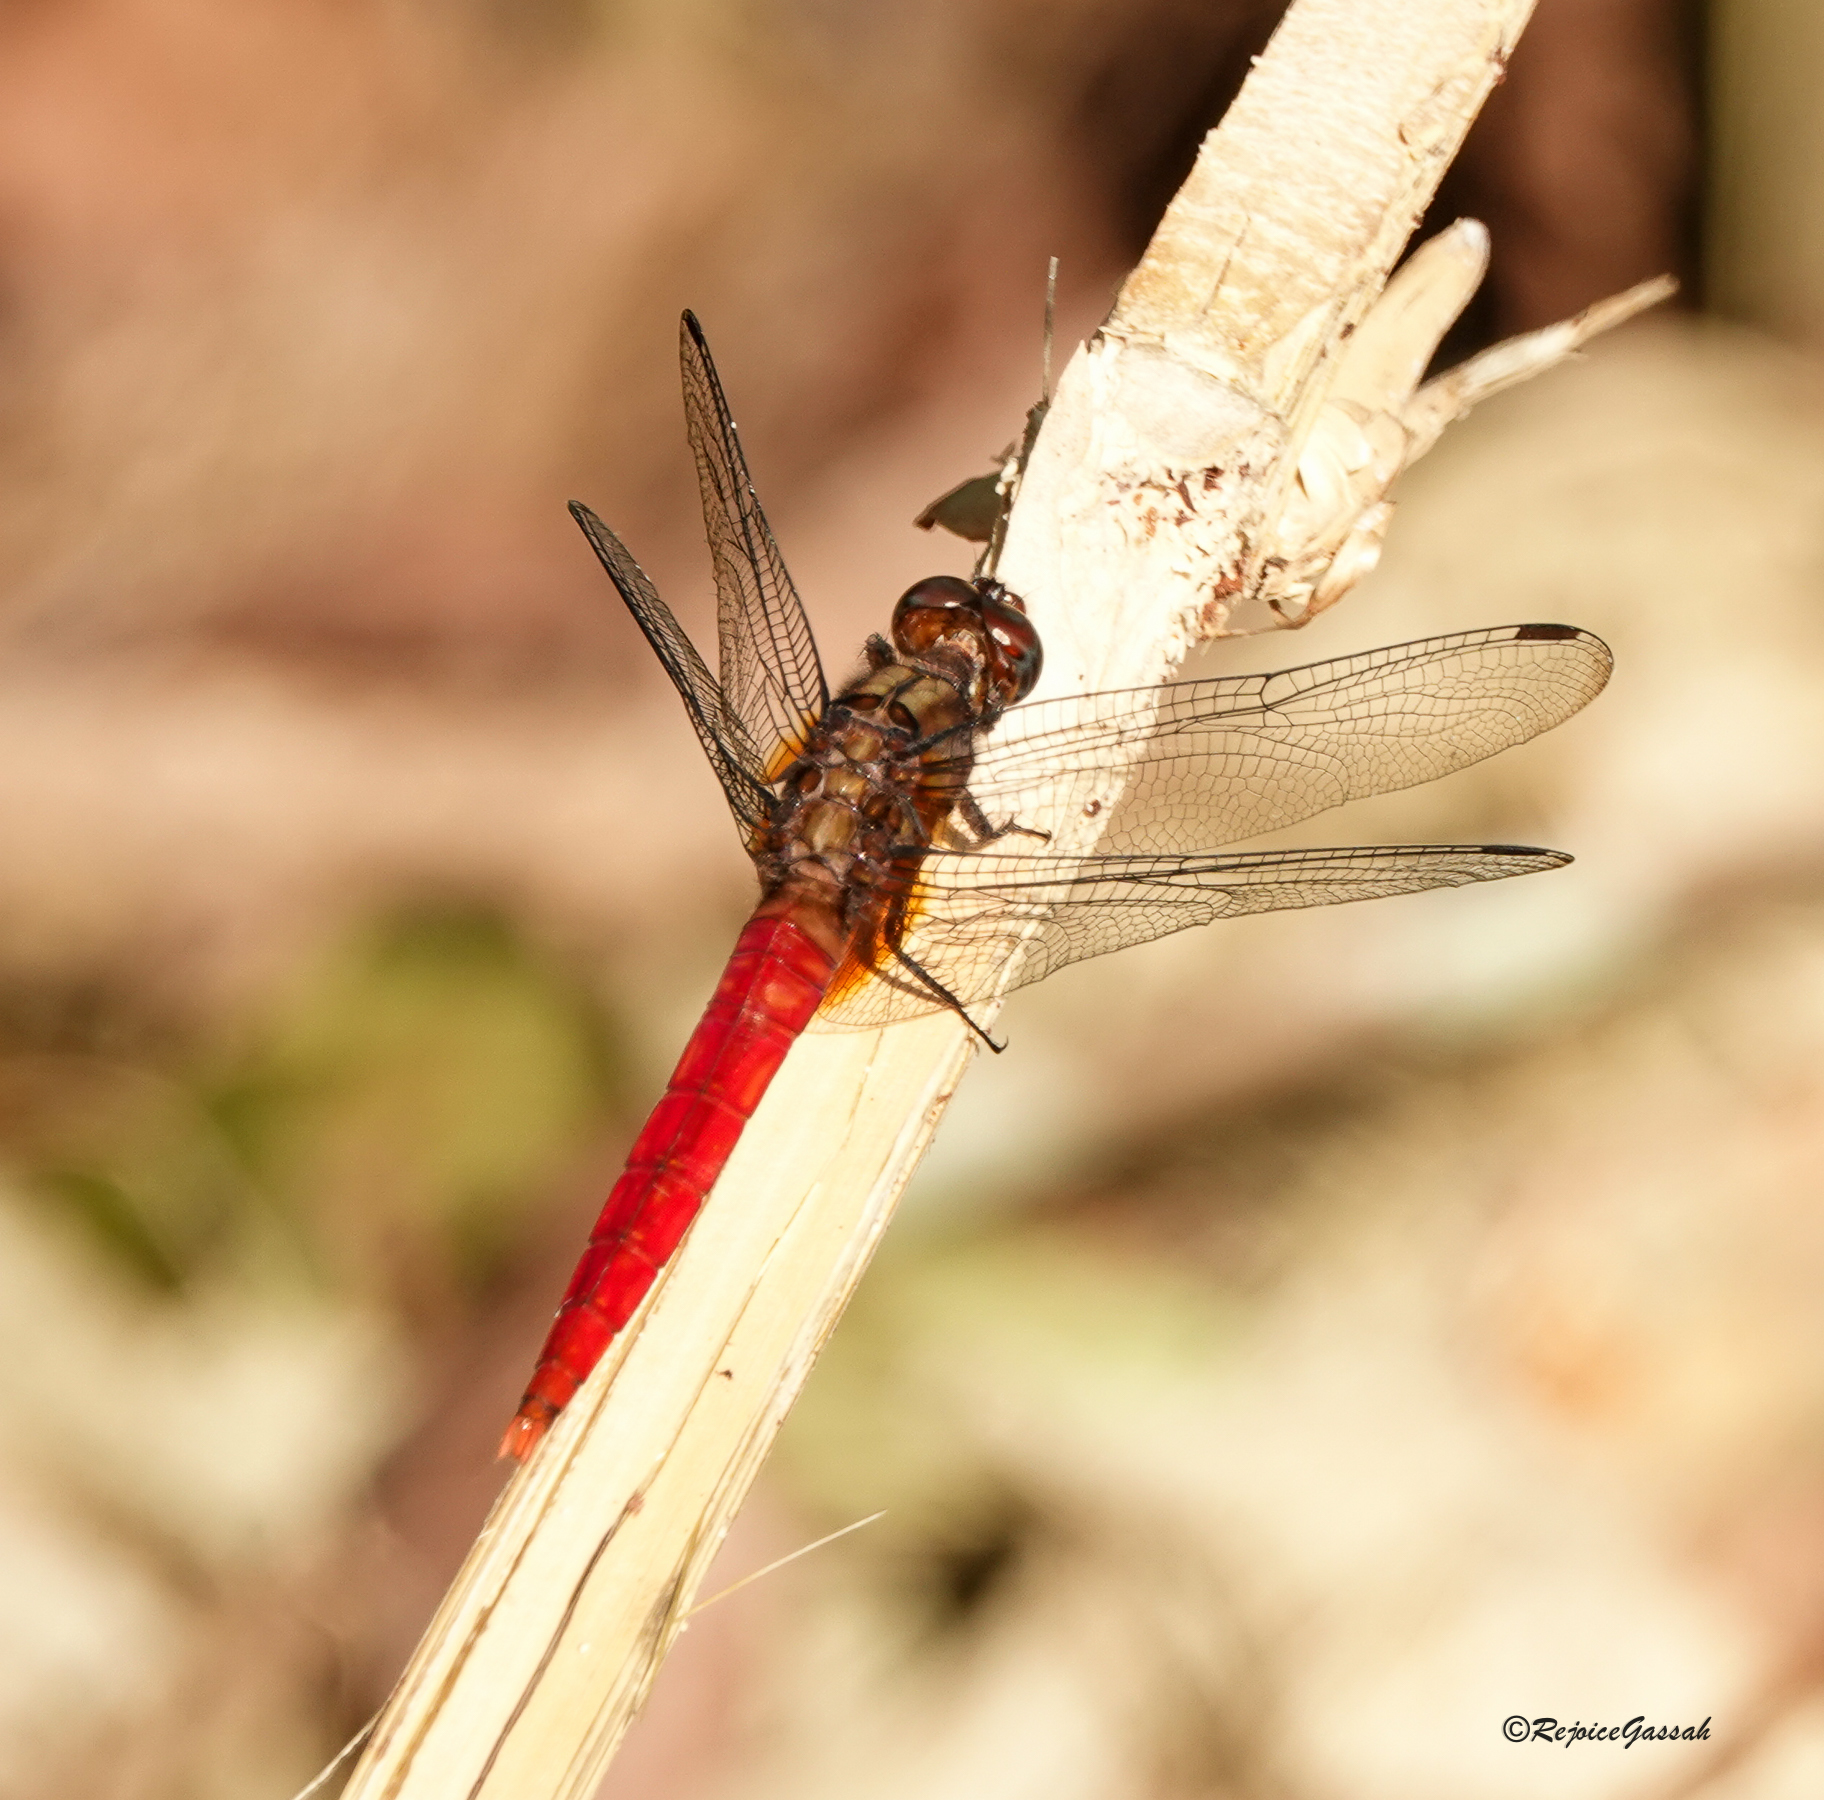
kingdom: Animalia
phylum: Arthropoda
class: Insecta
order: Odonata
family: Libellulidae
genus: Orthetrum
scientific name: Orthetrum chrysis
